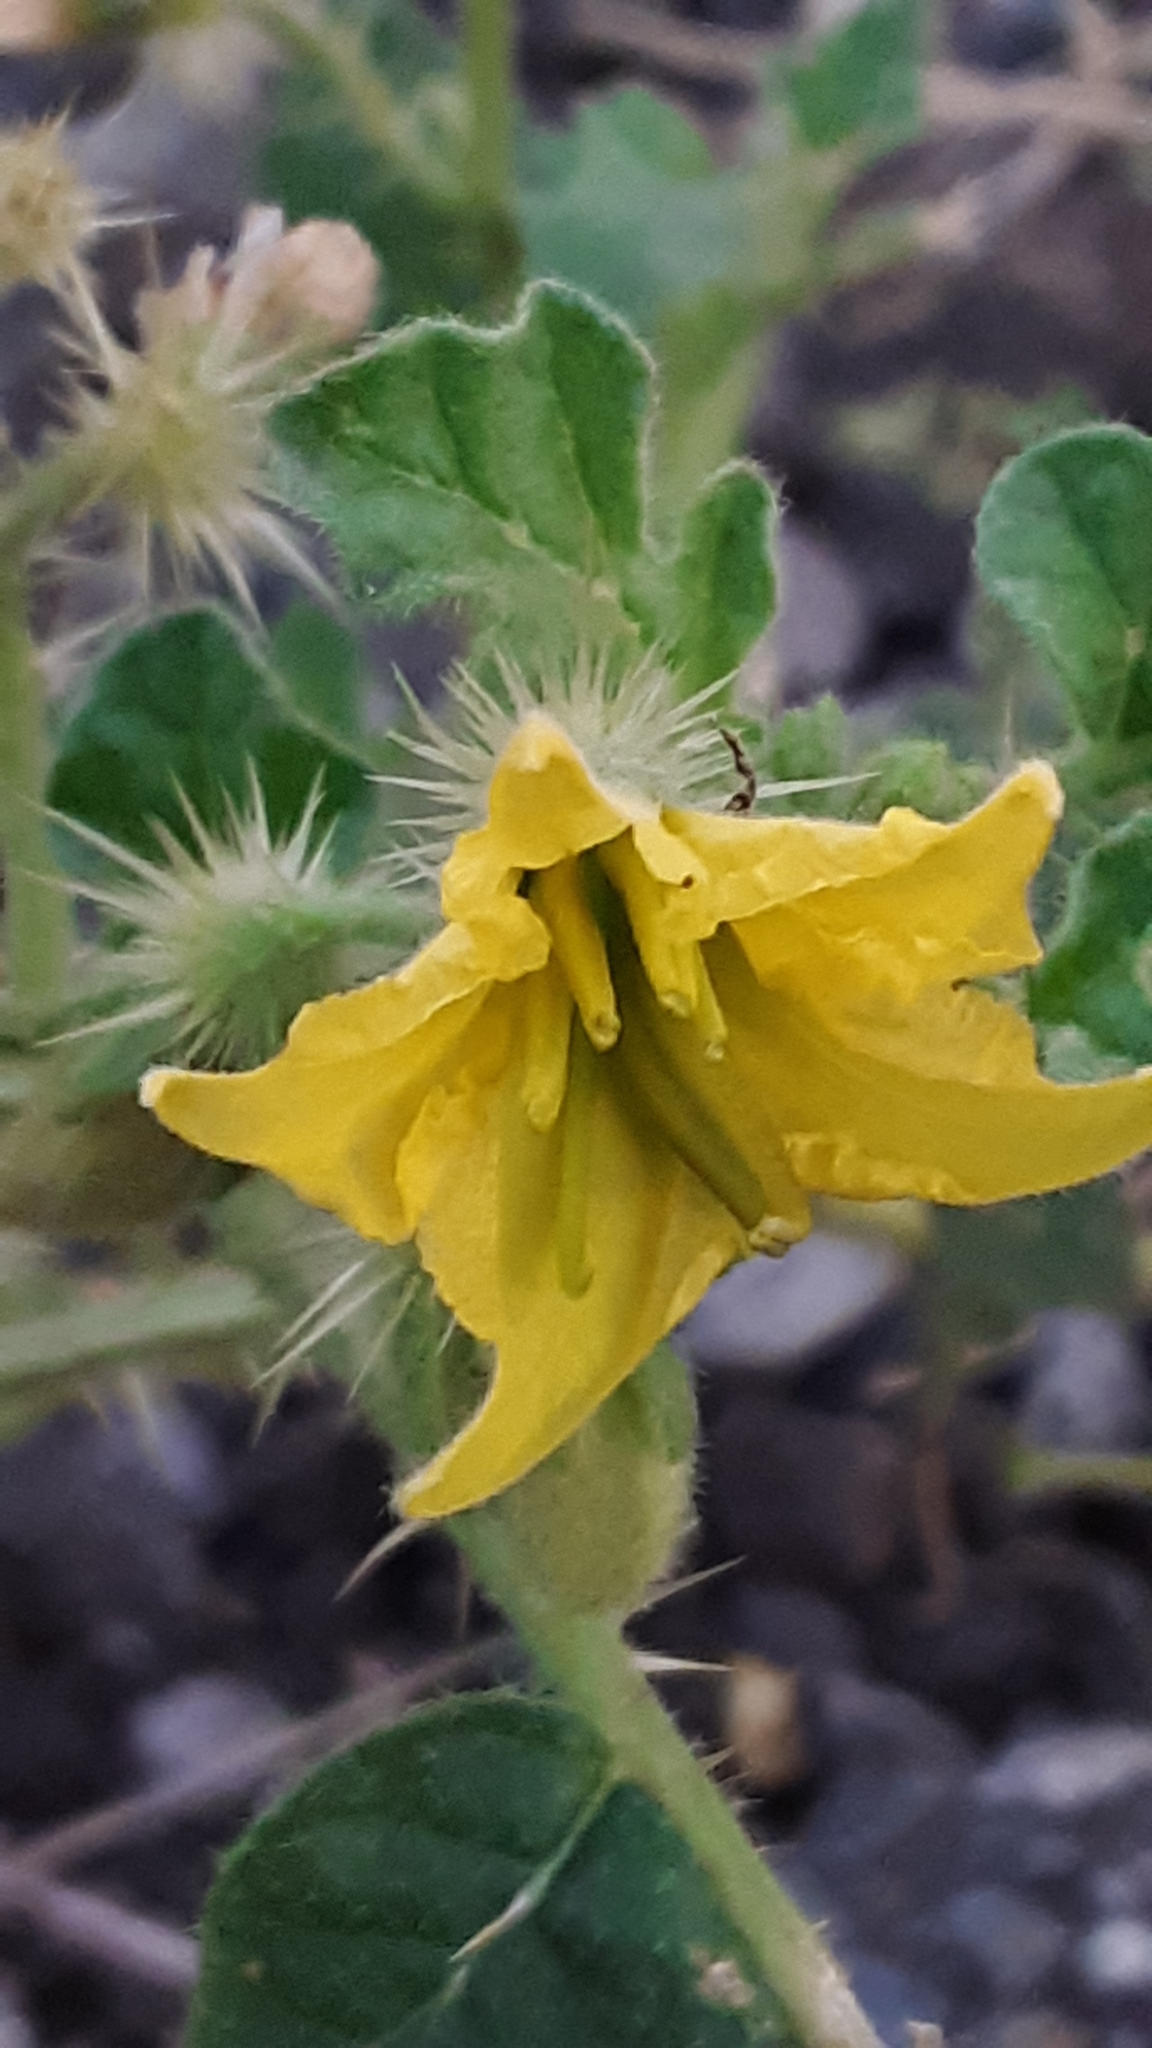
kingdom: Plantae
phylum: Tracheophyta
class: Magnoliopsida
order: Solanales
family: Solanaceae
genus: Solanum
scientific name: Solanum angustifolium
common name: Buffalobur nightshade
